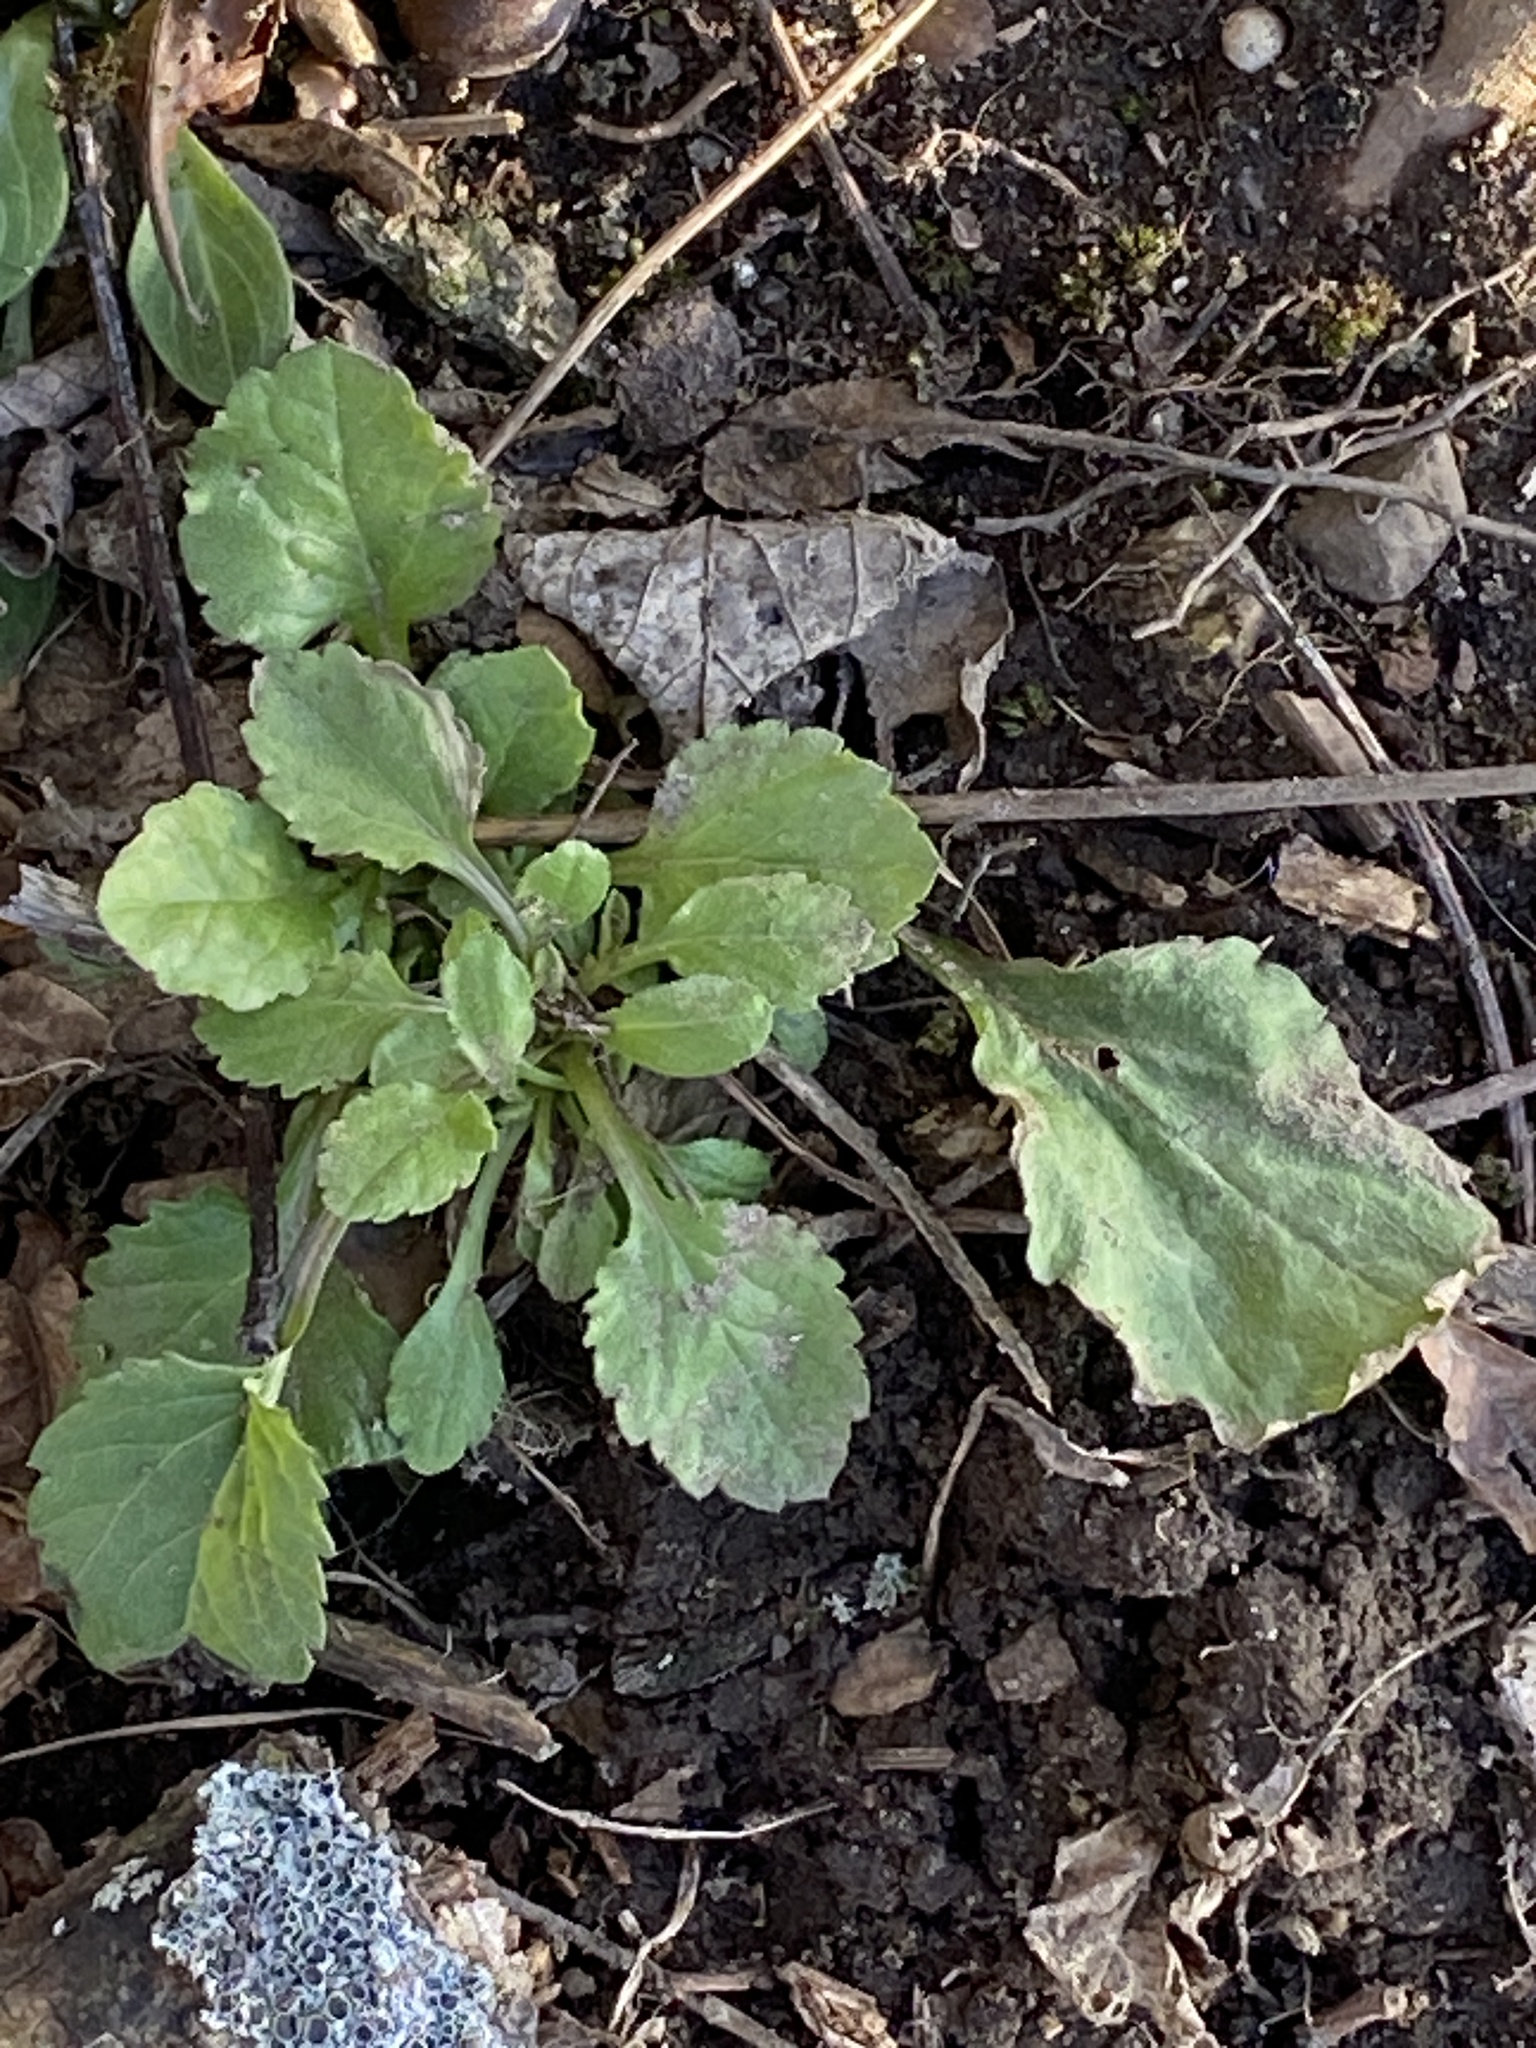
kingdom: Plantae
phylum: Tracheophyta
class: Magnoliopsida
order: Asterales
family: Asteraceae
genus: Erigeron
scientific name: Erigeron annuus
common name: Tall fleabane
